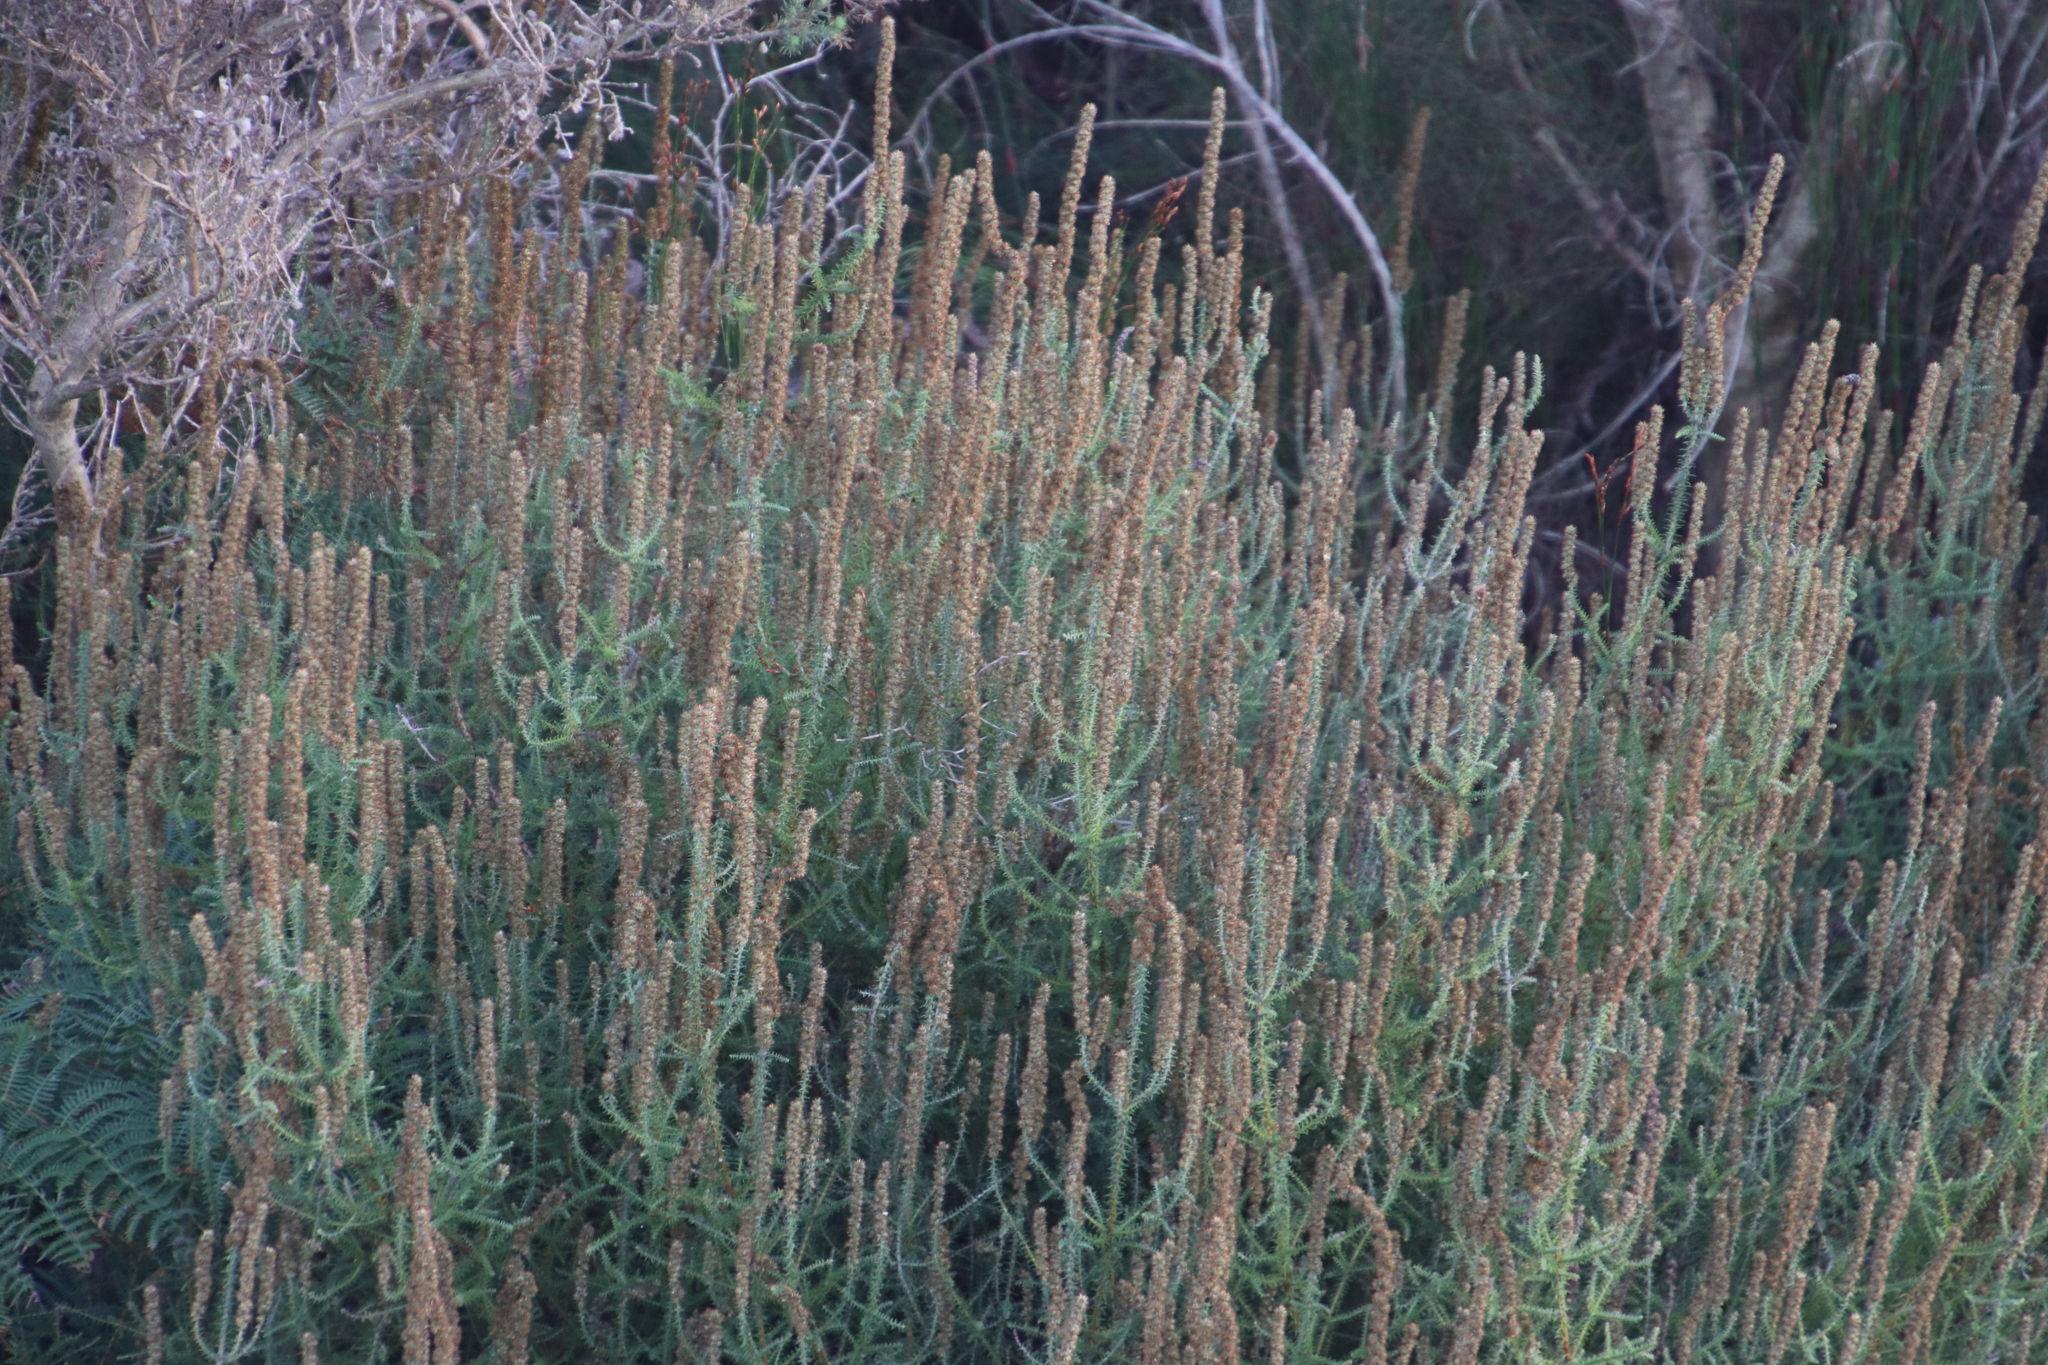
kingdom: Plantae
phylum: Tracheophyta
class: Magnoliopsida
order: Asterales
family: Asteraceae
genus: Seriphium
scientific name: Seriphium cinereum
